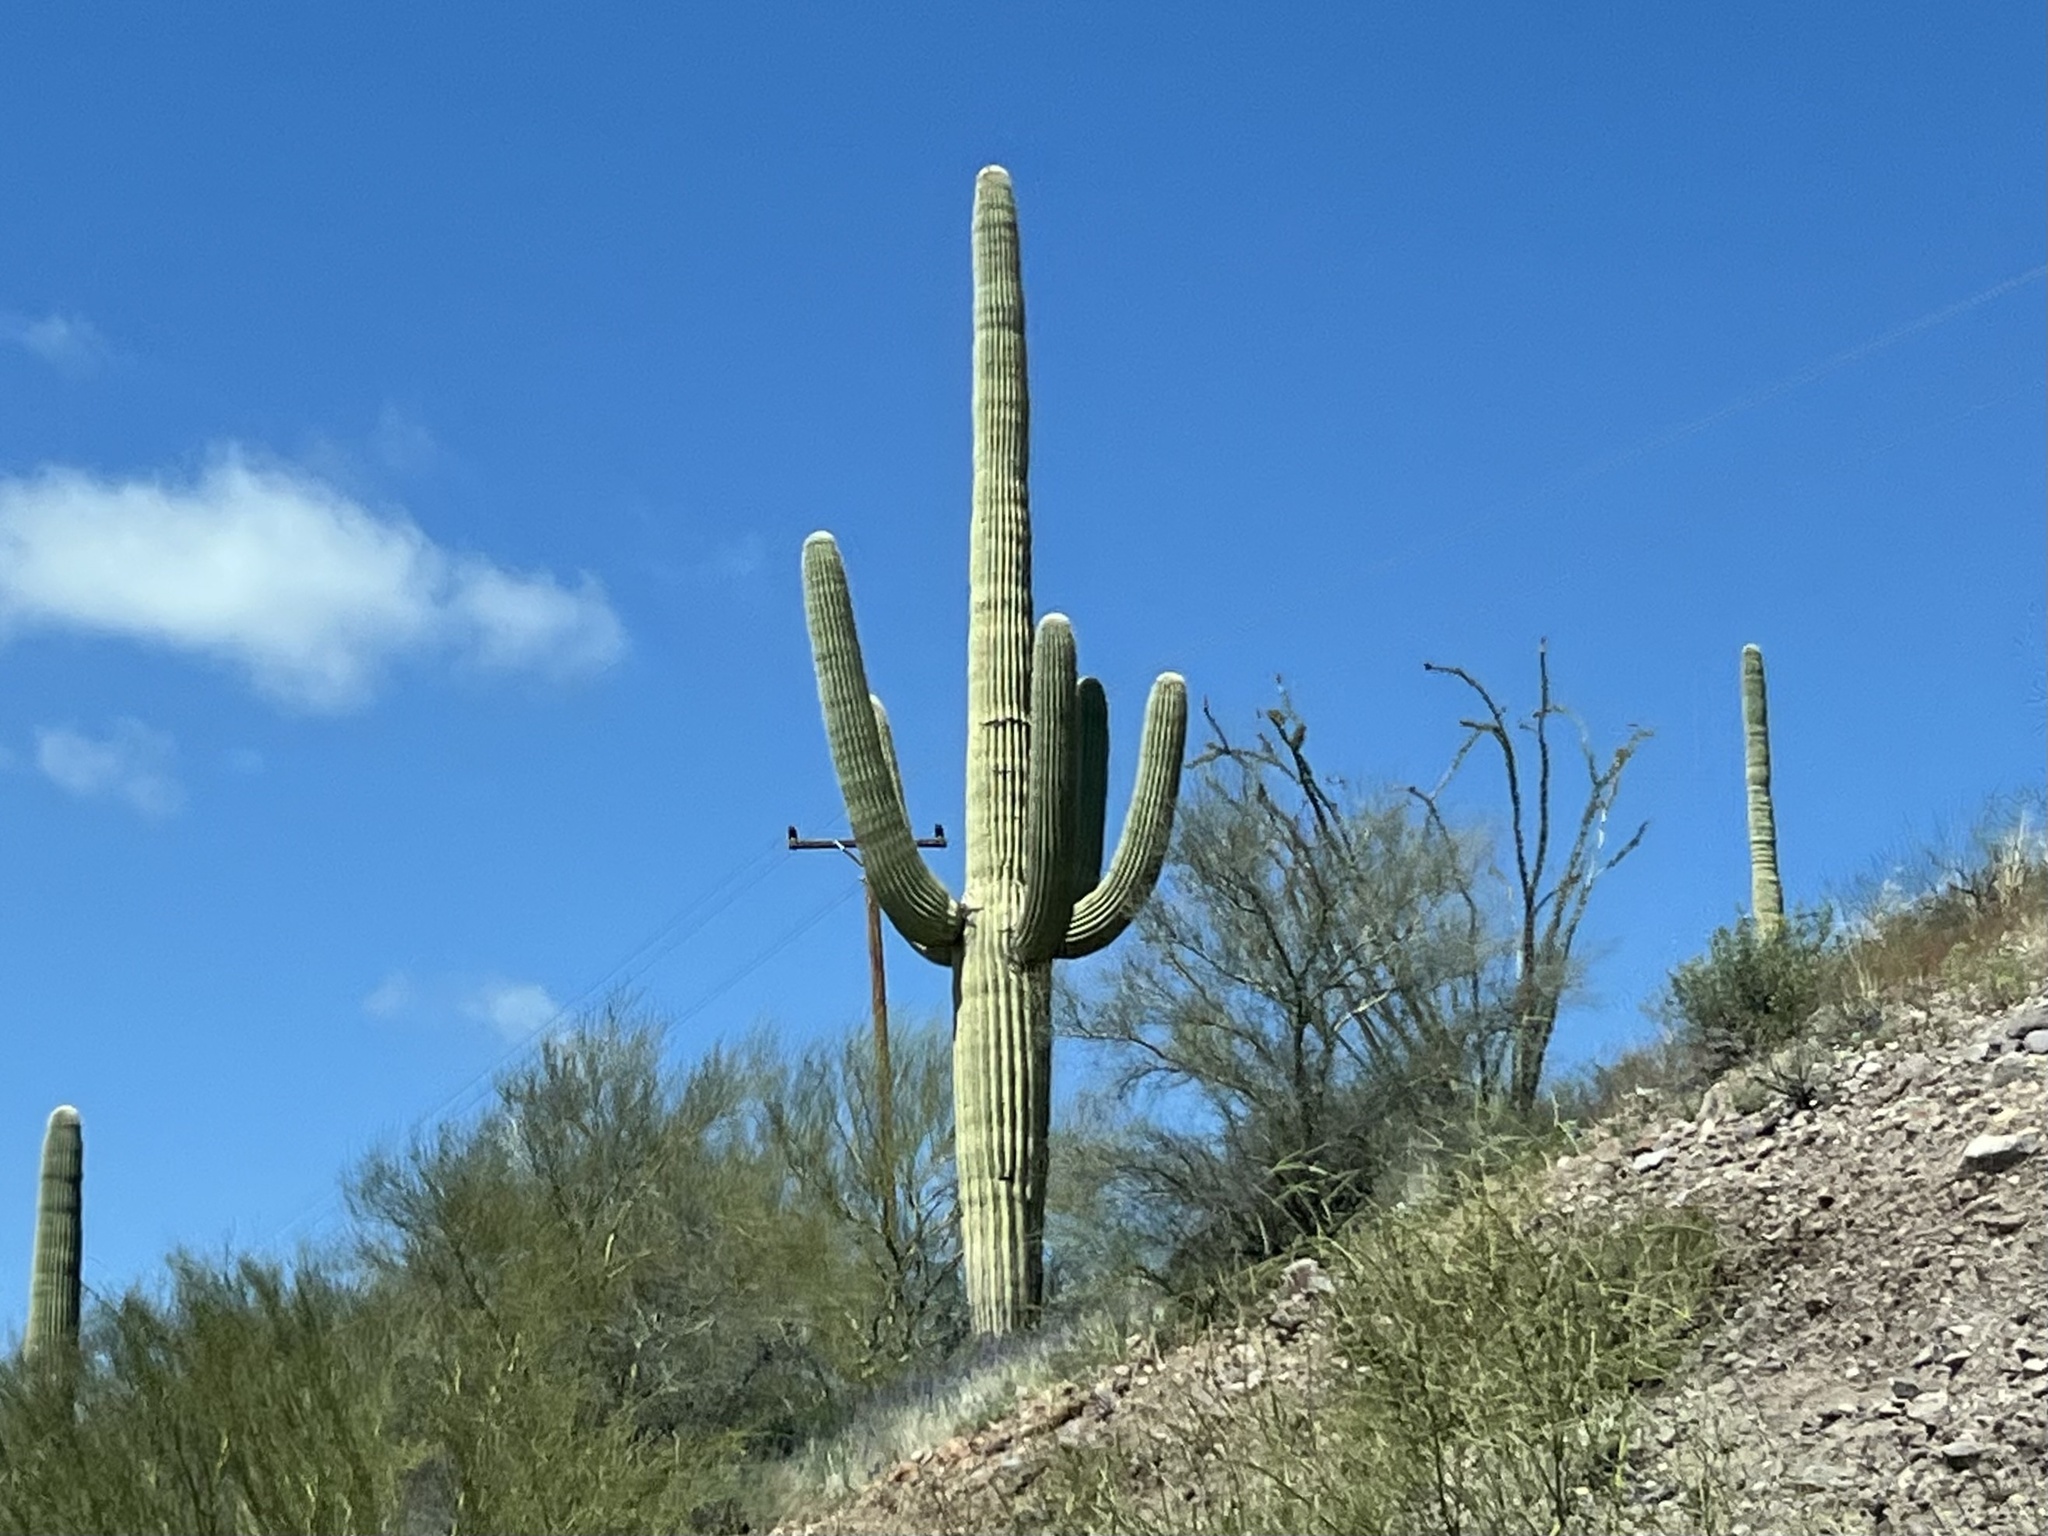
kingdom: Plantae
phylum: Tracheophyta
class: Magnoliopsida
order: Caryophyllales
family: Cactaceae
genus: Carnegiea
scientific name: Carnegiea gigantea
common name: Saguaro
